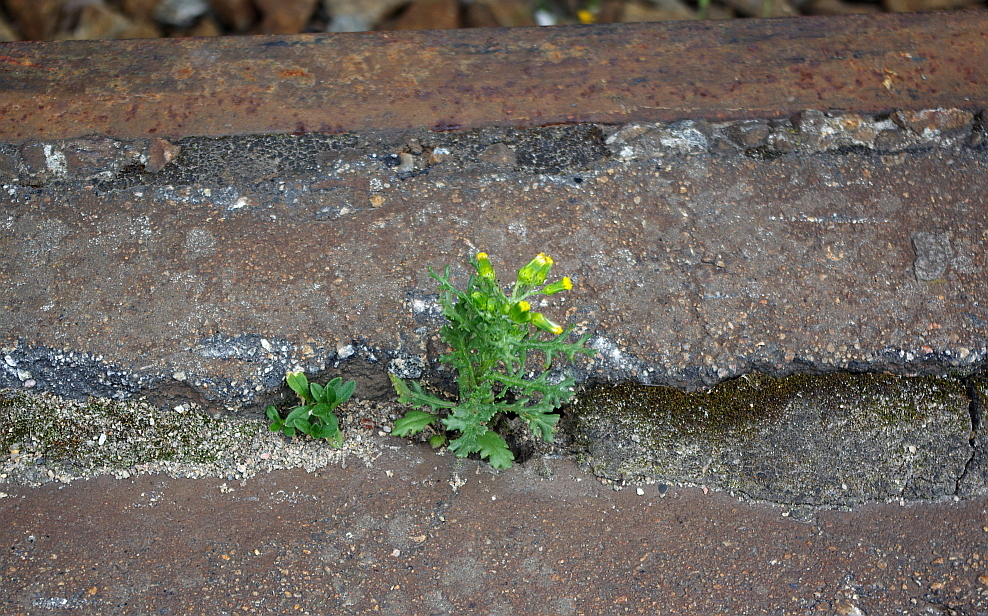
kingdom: Plantae
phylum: Tracheophyta
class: Magnoliopsida
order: Asterales
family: Asteraceae
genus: Senecio
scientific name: Senecio vulgaris
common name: Old-man-in-the-spring
